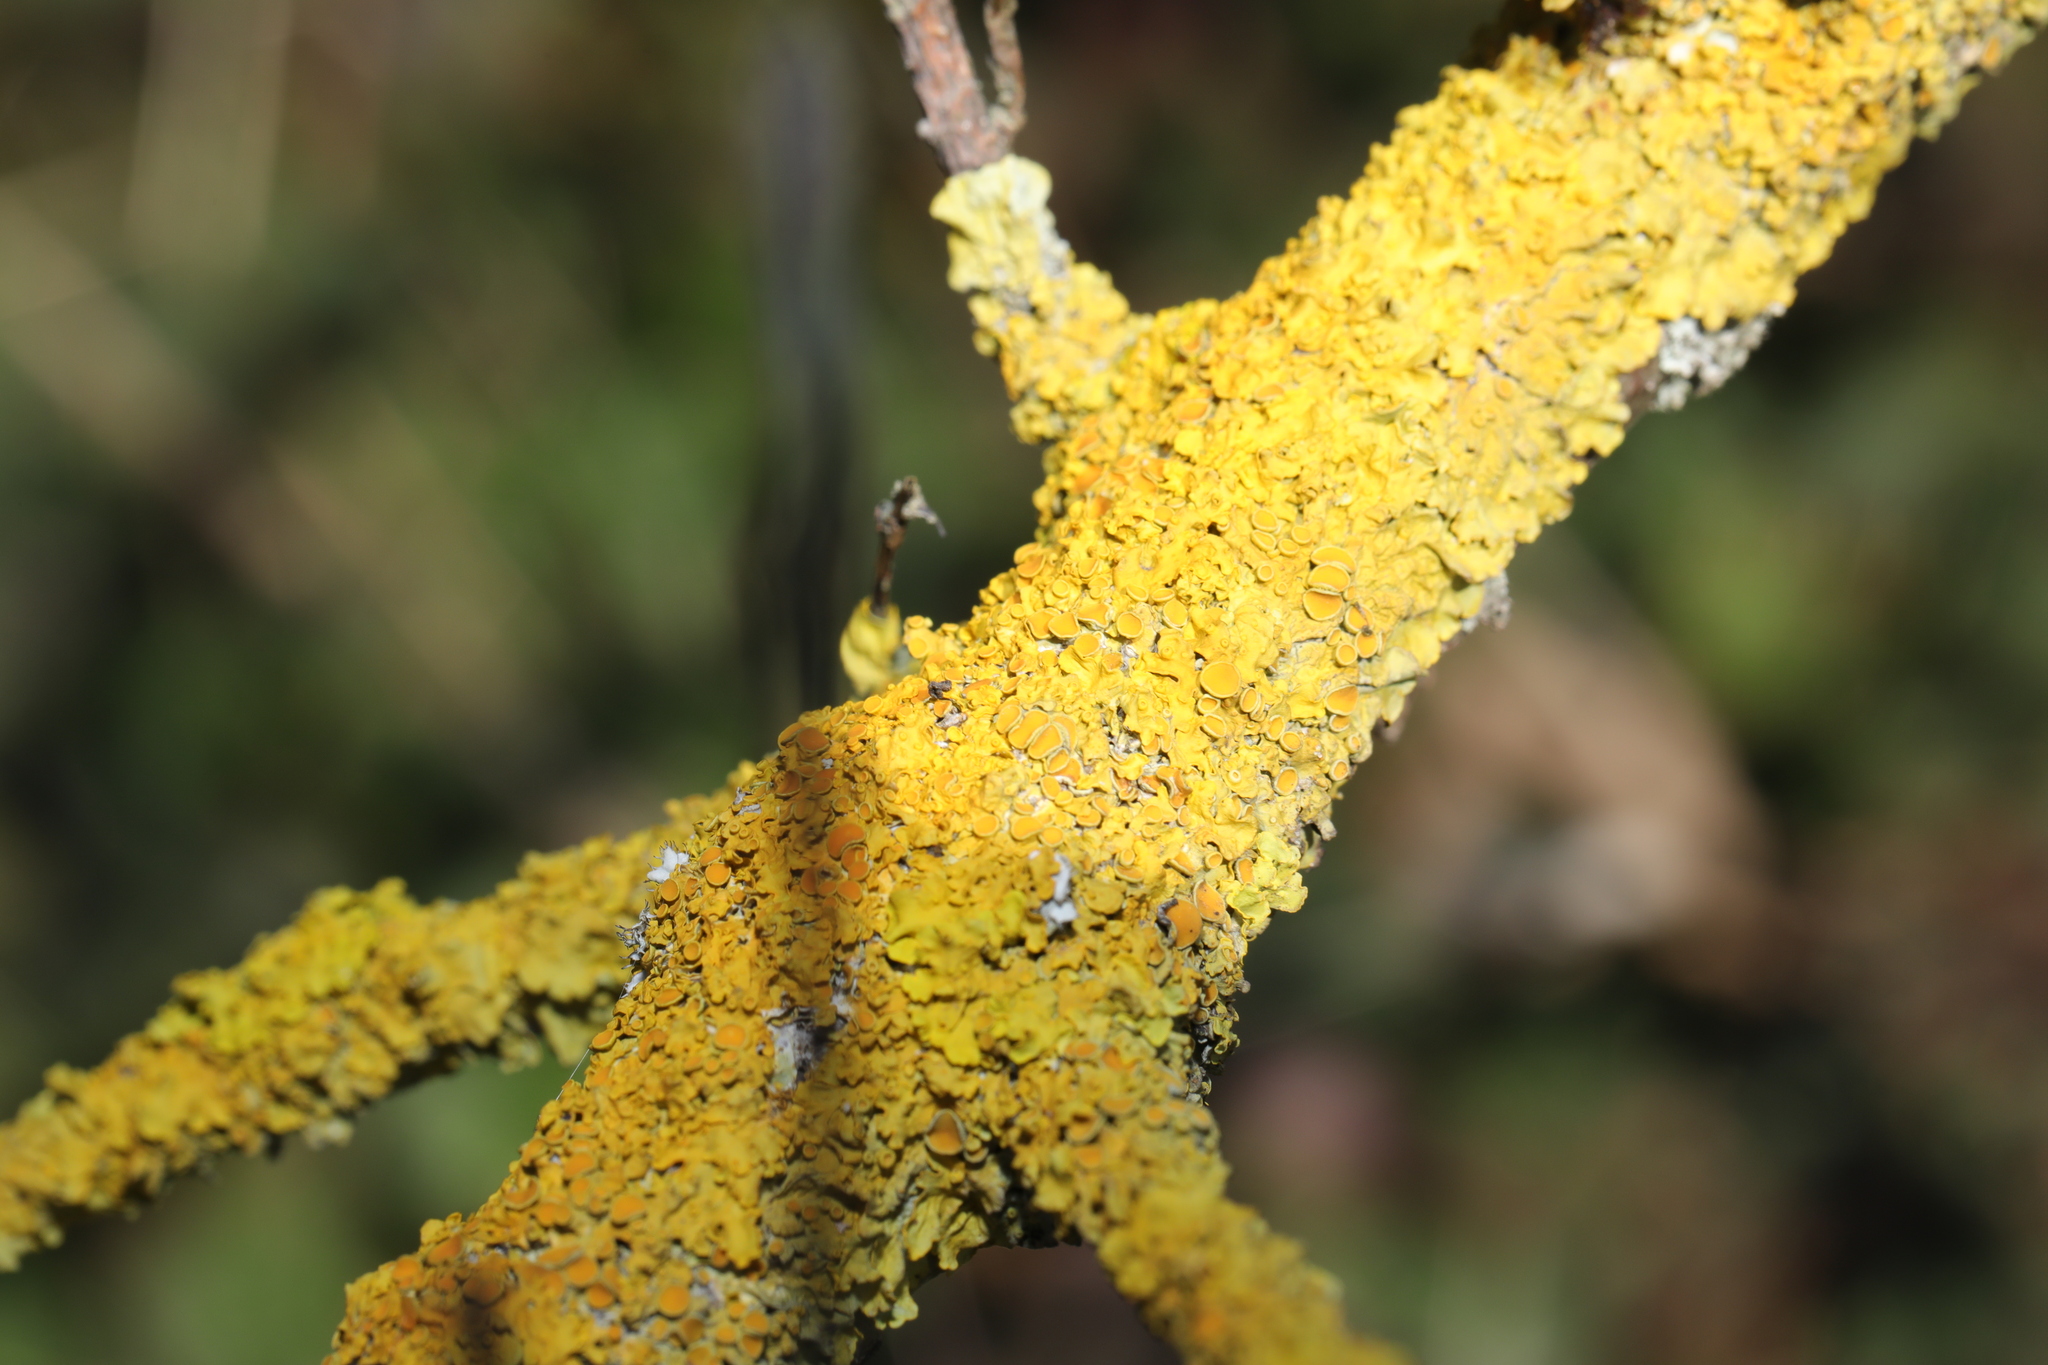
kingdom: Fungi
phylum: Ascomycota
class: Lecanoromycetes
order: Teloschistales
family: Teloschistaceae
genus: Xanthoria
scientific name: Xanthoria parietina
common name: Common orange lichen
